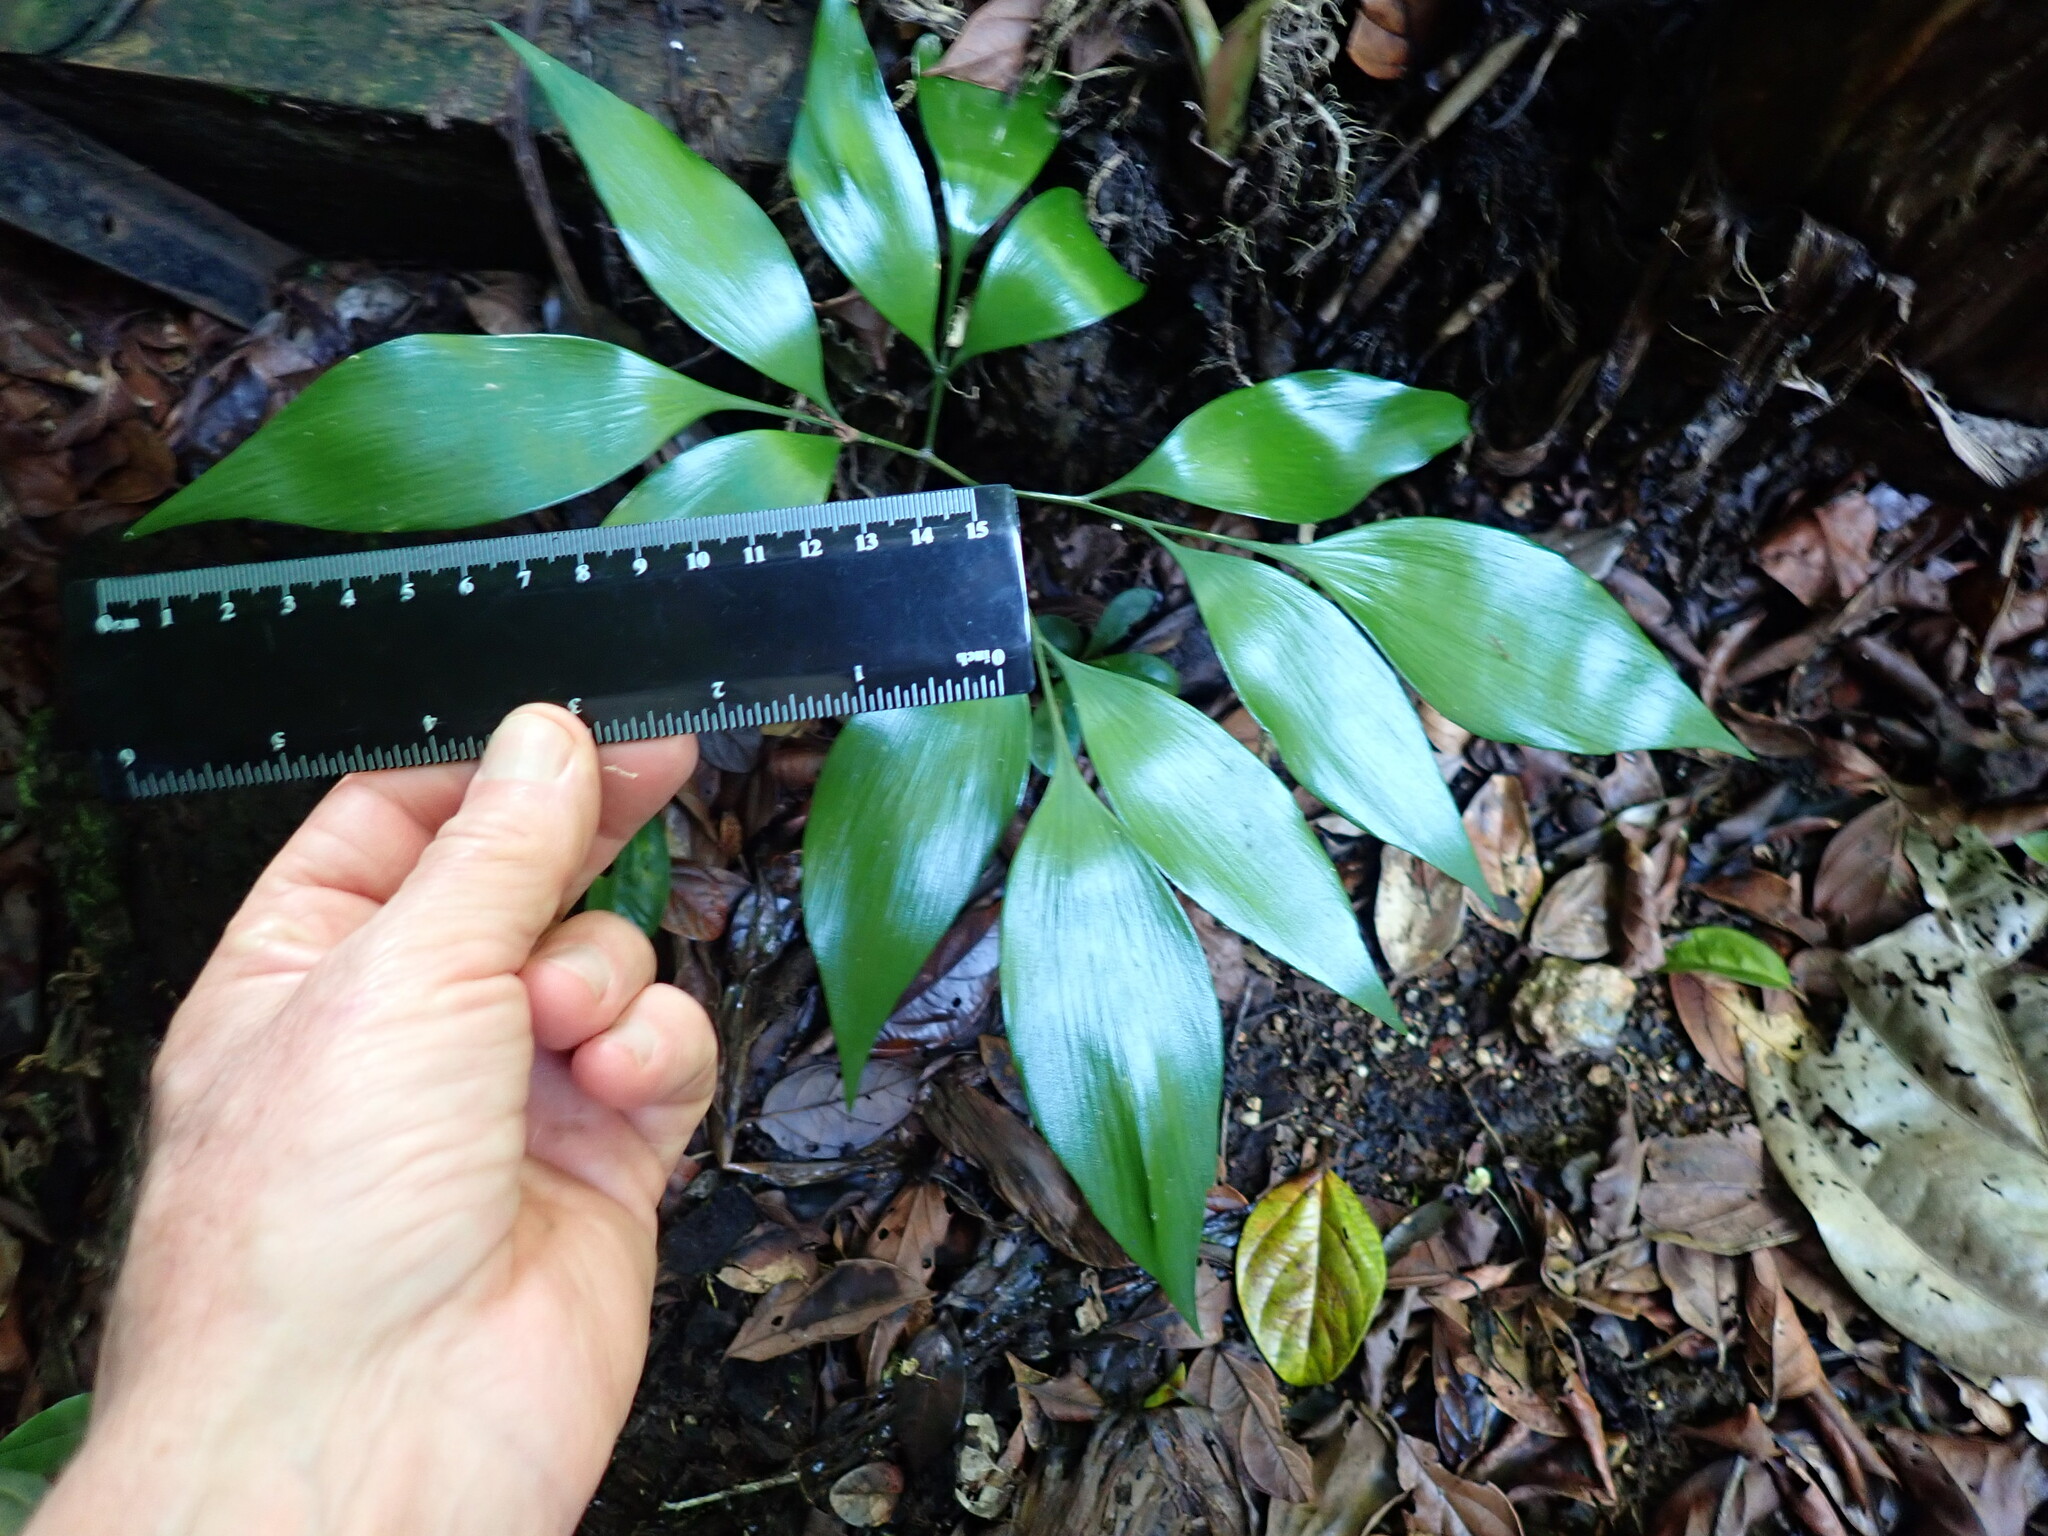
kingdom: Plantae
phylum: Tracheophyta
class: Cycadopsida
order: Cycadales
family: Zamiaceae
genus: Bowenia
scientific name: Bowenia spectabilis
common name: Zamia-fern
